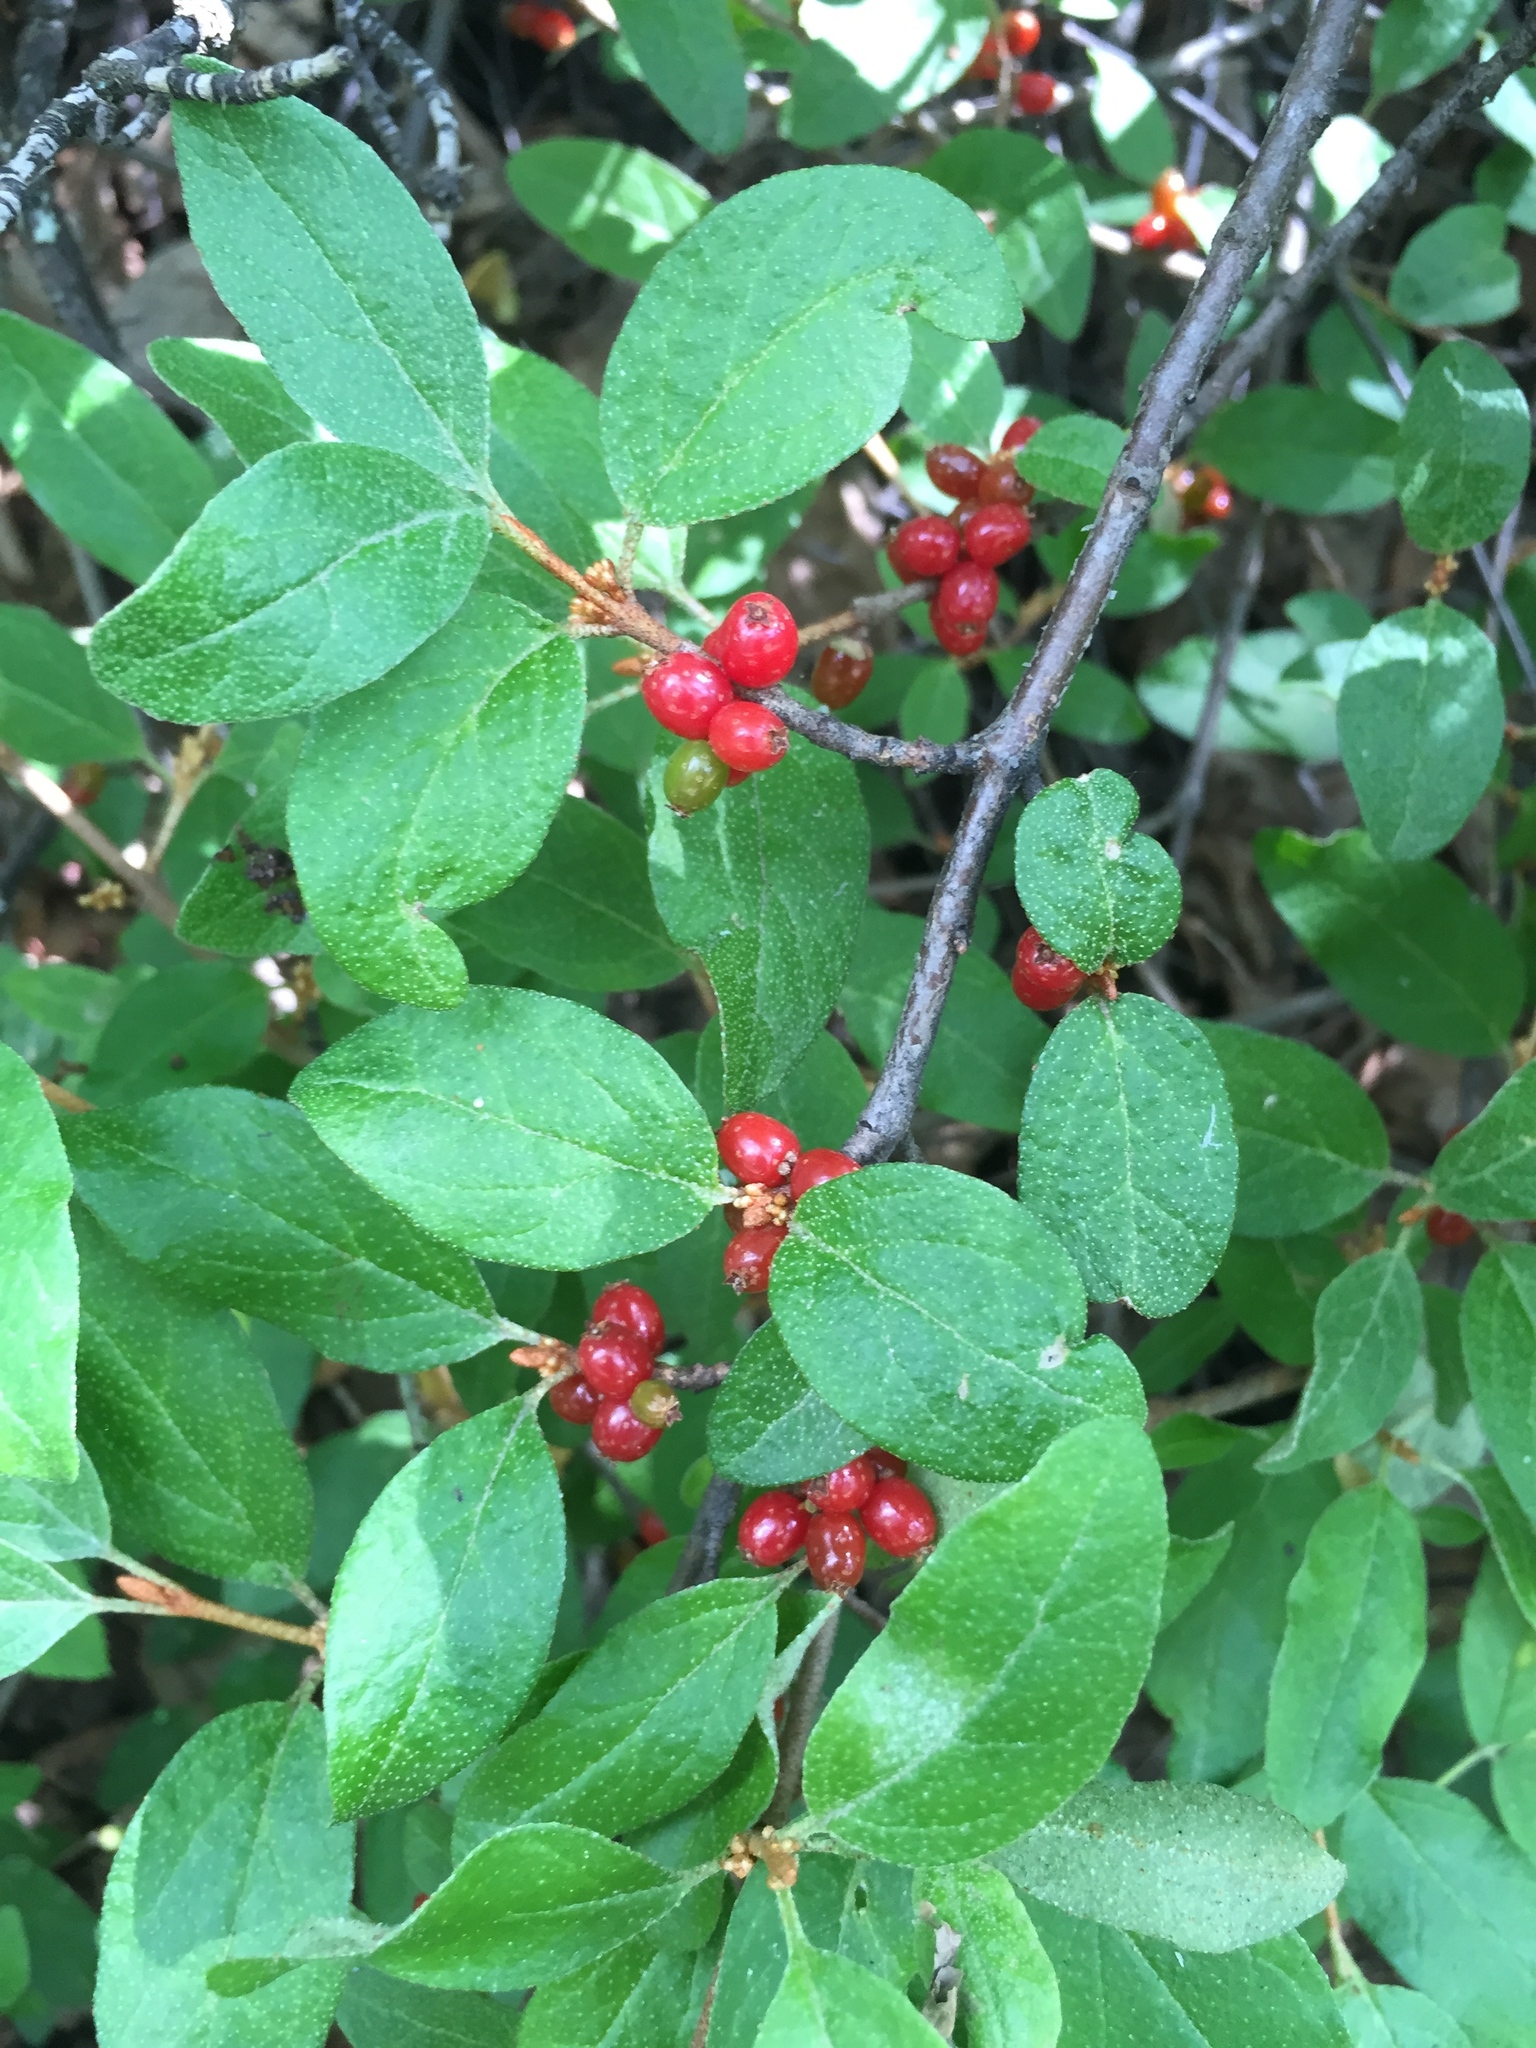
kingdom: Plantae
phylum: Tracheophyta
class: Magnoliopsida
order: Rosales
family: Elaeagnaceae
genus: Shepherdia
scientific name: Shepherdia canadensis
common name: Soapberry
